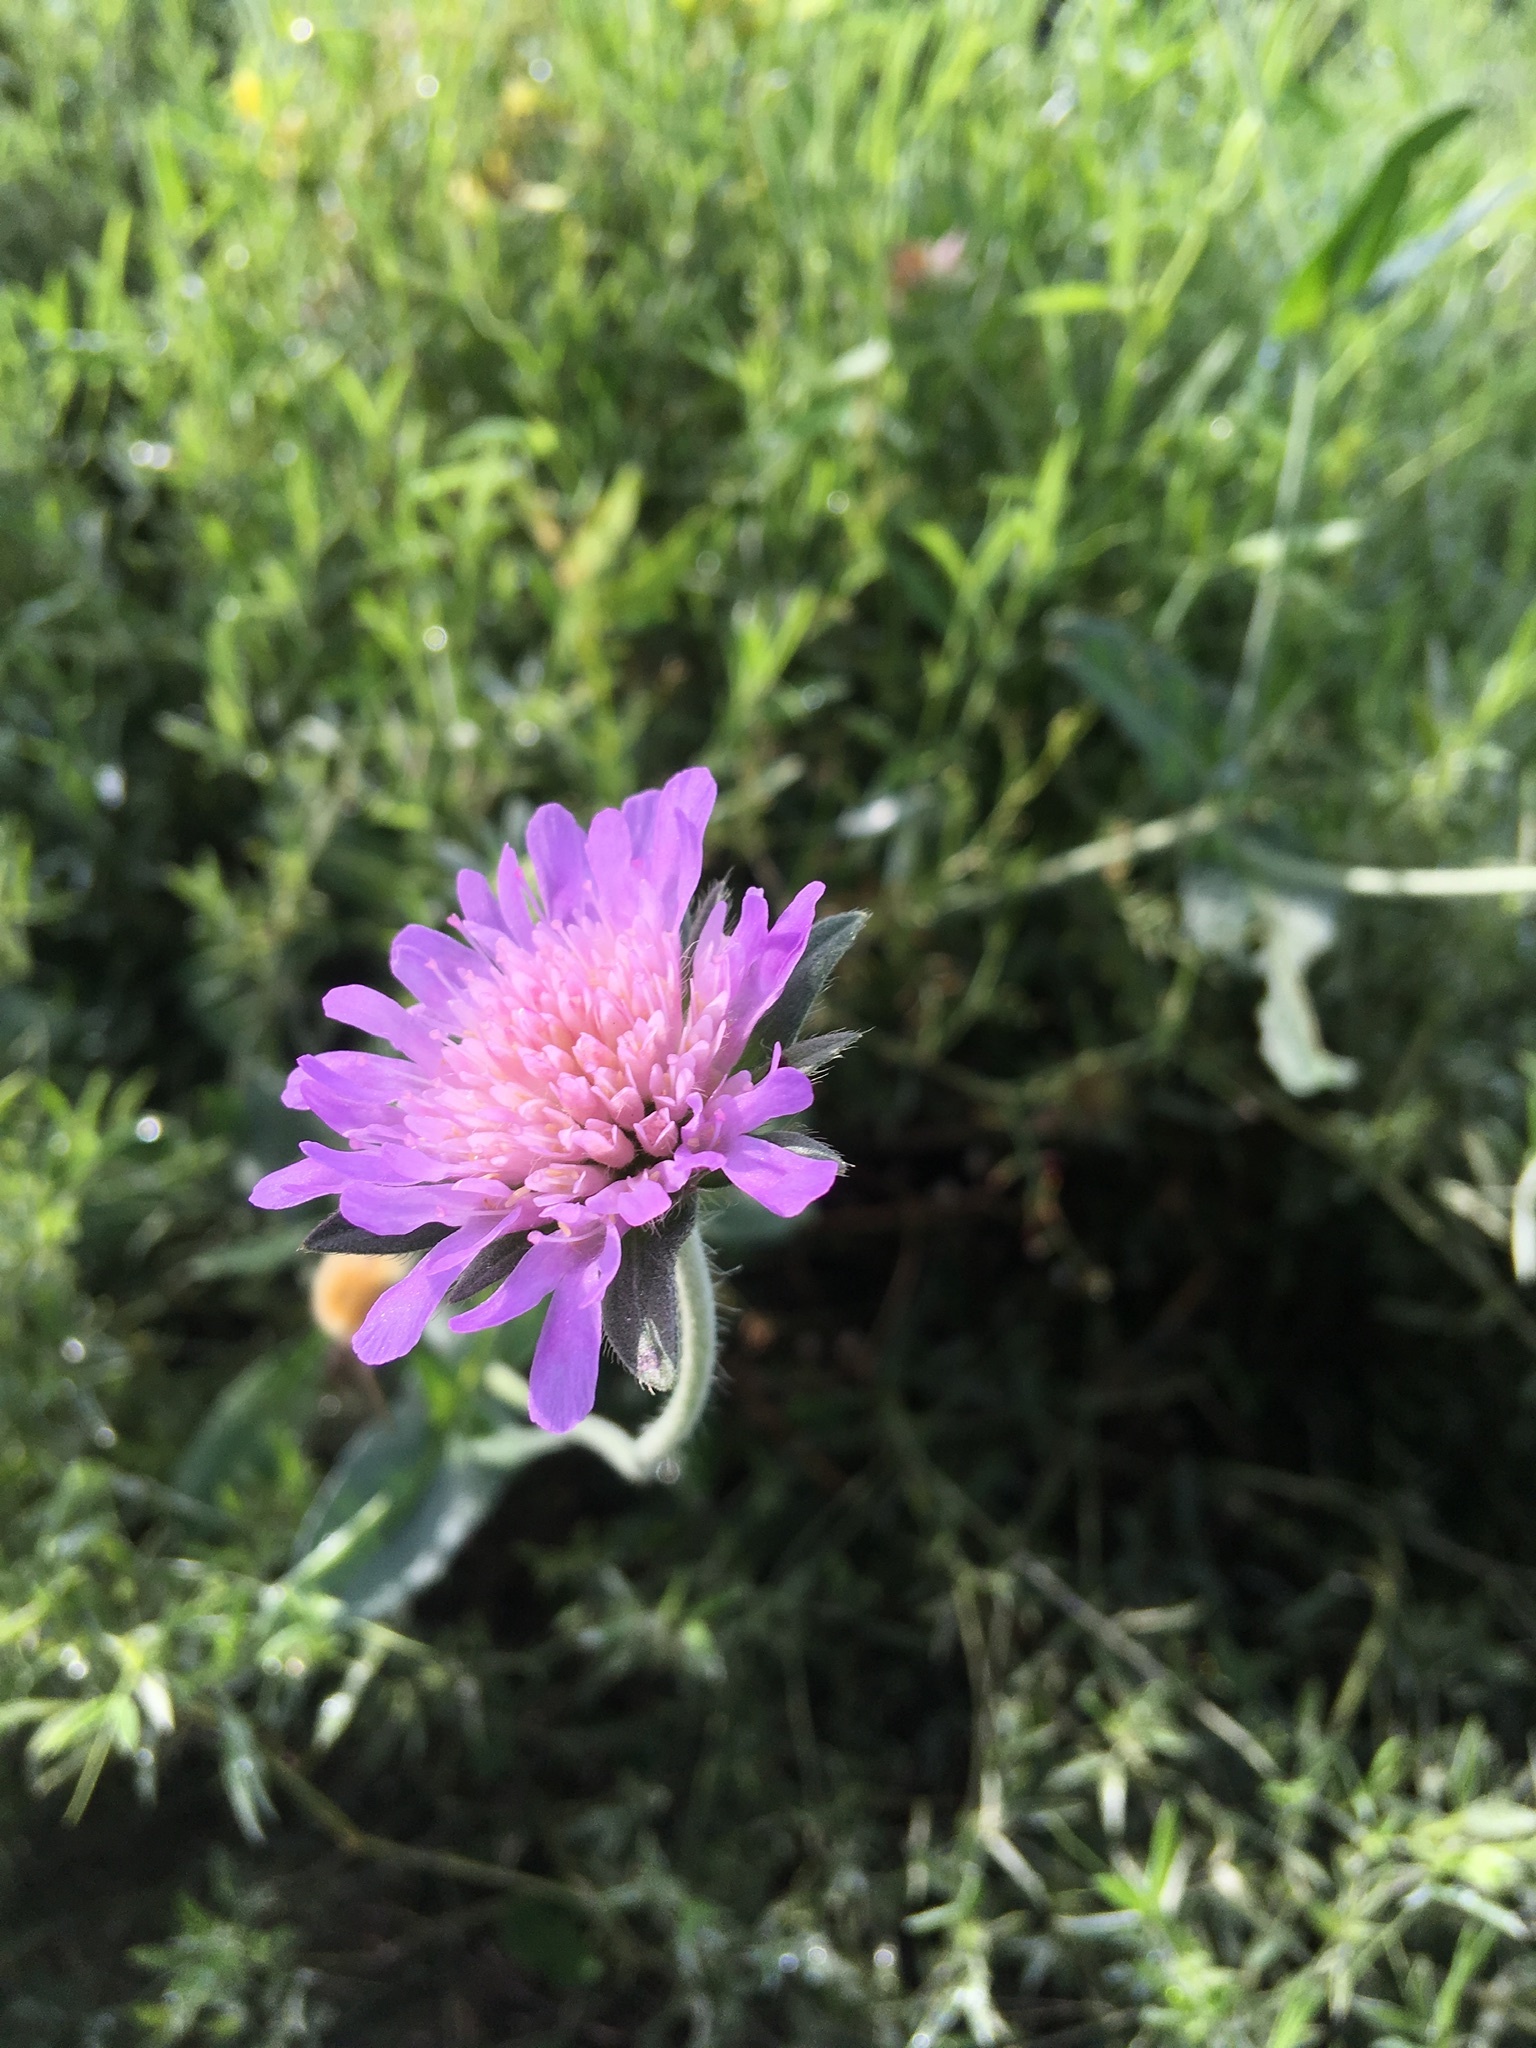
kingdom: Plantae
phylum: Tracheophyta
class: Magnoliopsida
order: Dipsacales
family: Caprifoliaceae
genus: Knautia
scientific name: Knautia arvensis
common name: Field scabiosa
